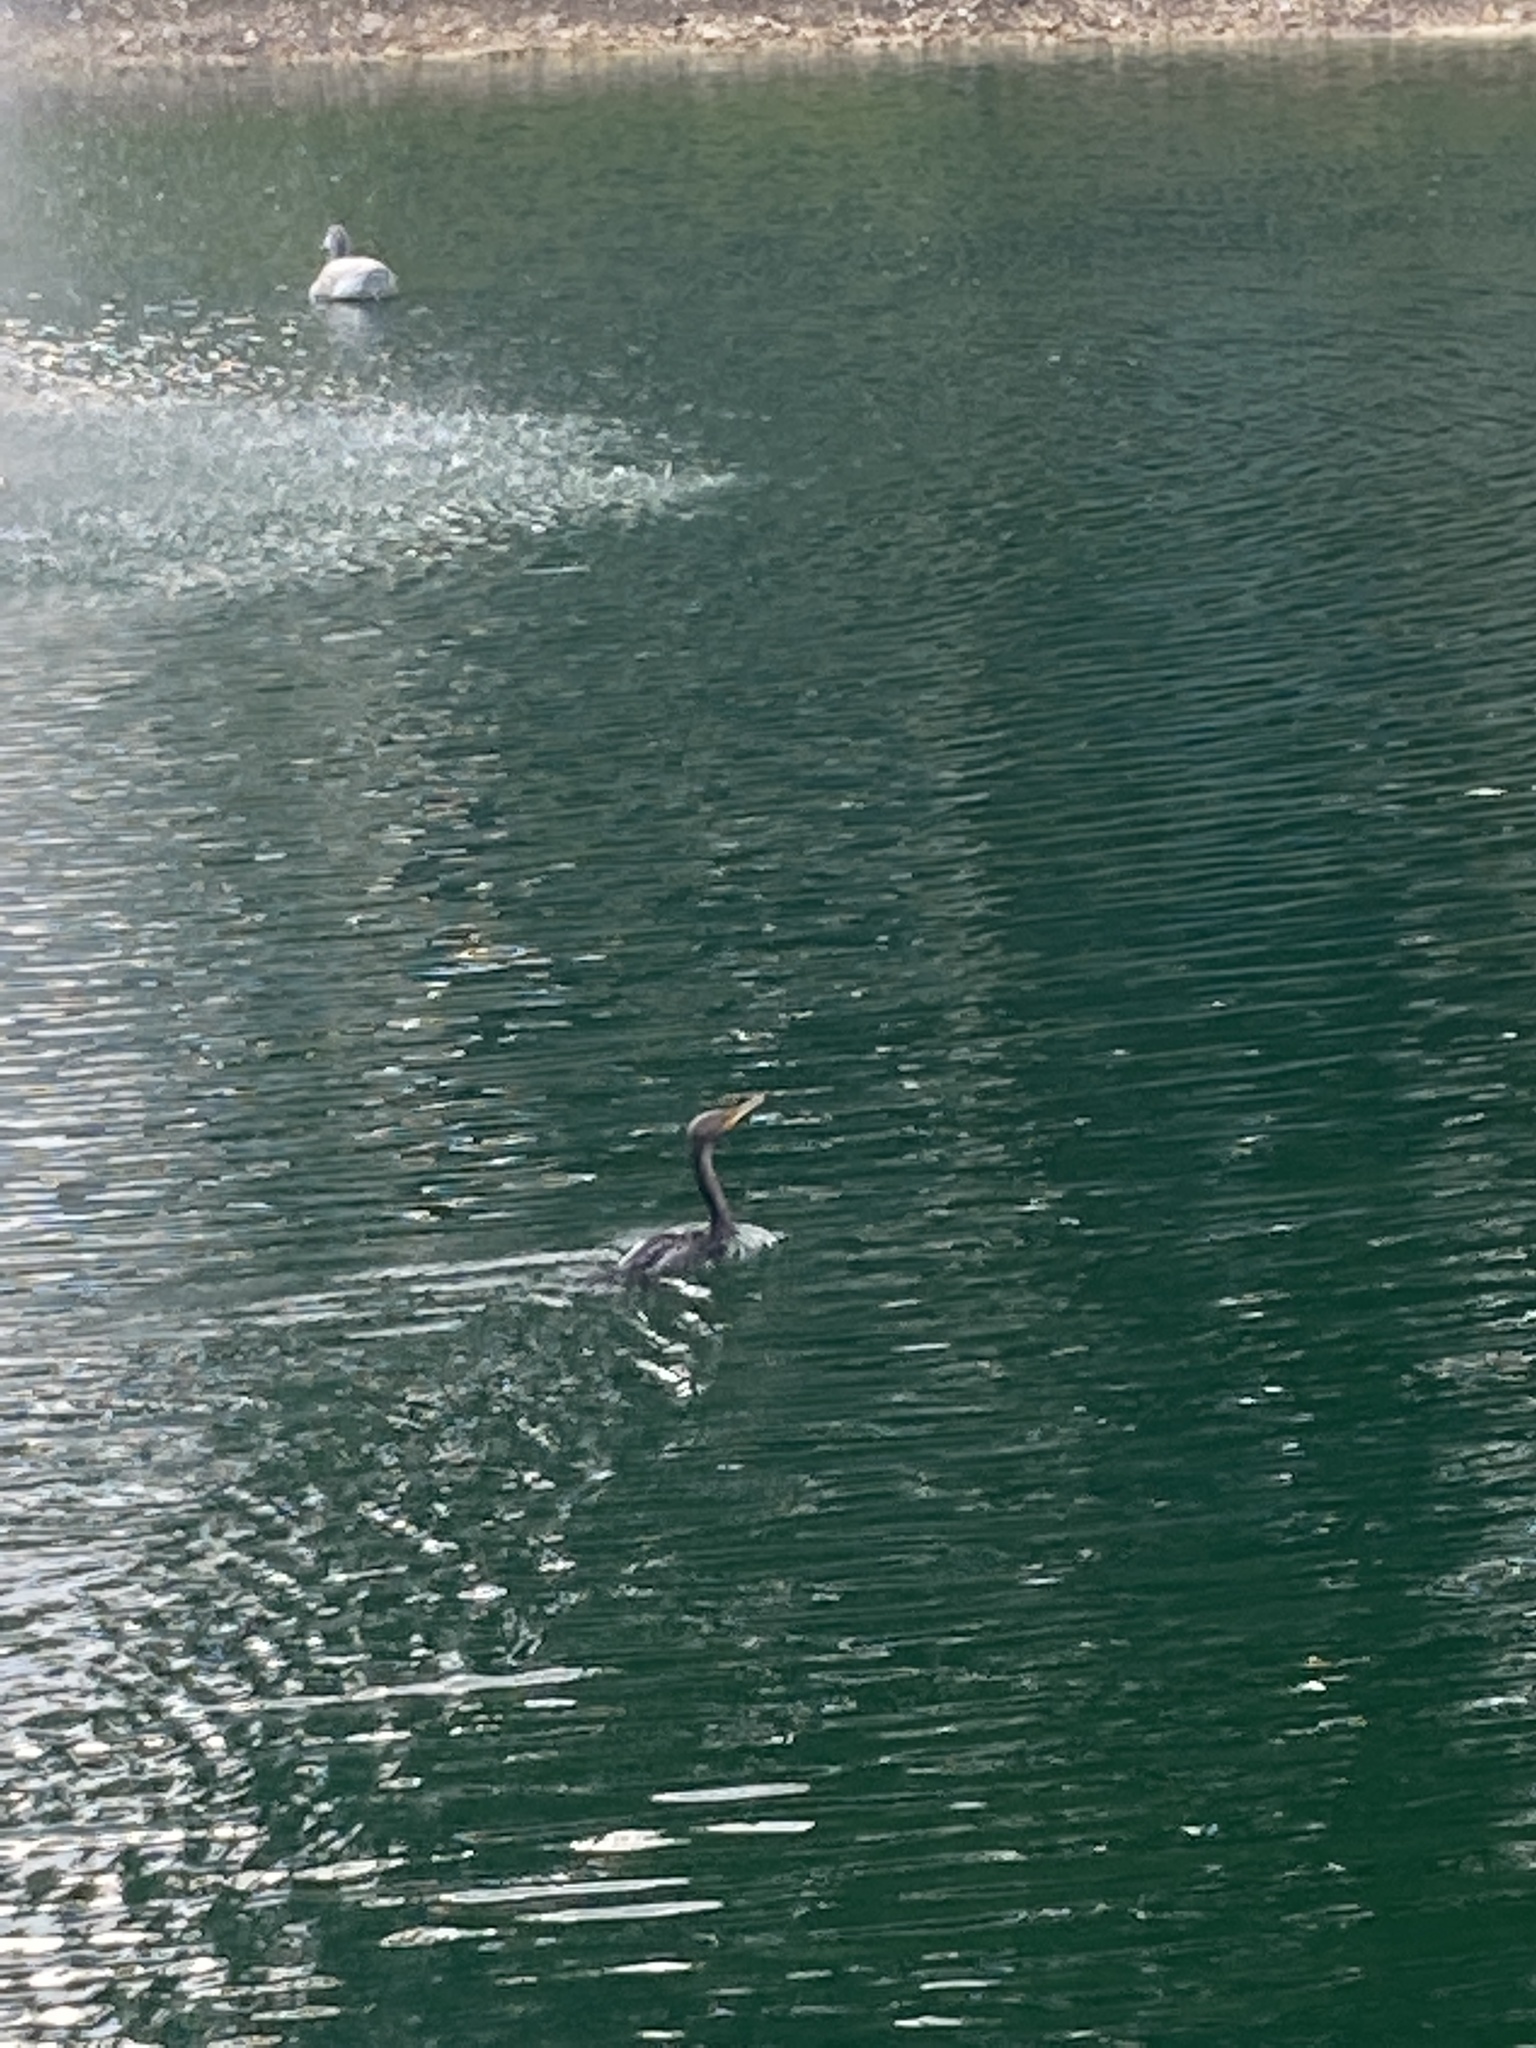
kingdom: Animalia
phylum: Chordata
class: Aves
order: Suliformes
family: Phalacrocoracidae
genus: Phalacrocorax
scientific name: Phalacrocorax auritus
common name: Double-crested cormorant
